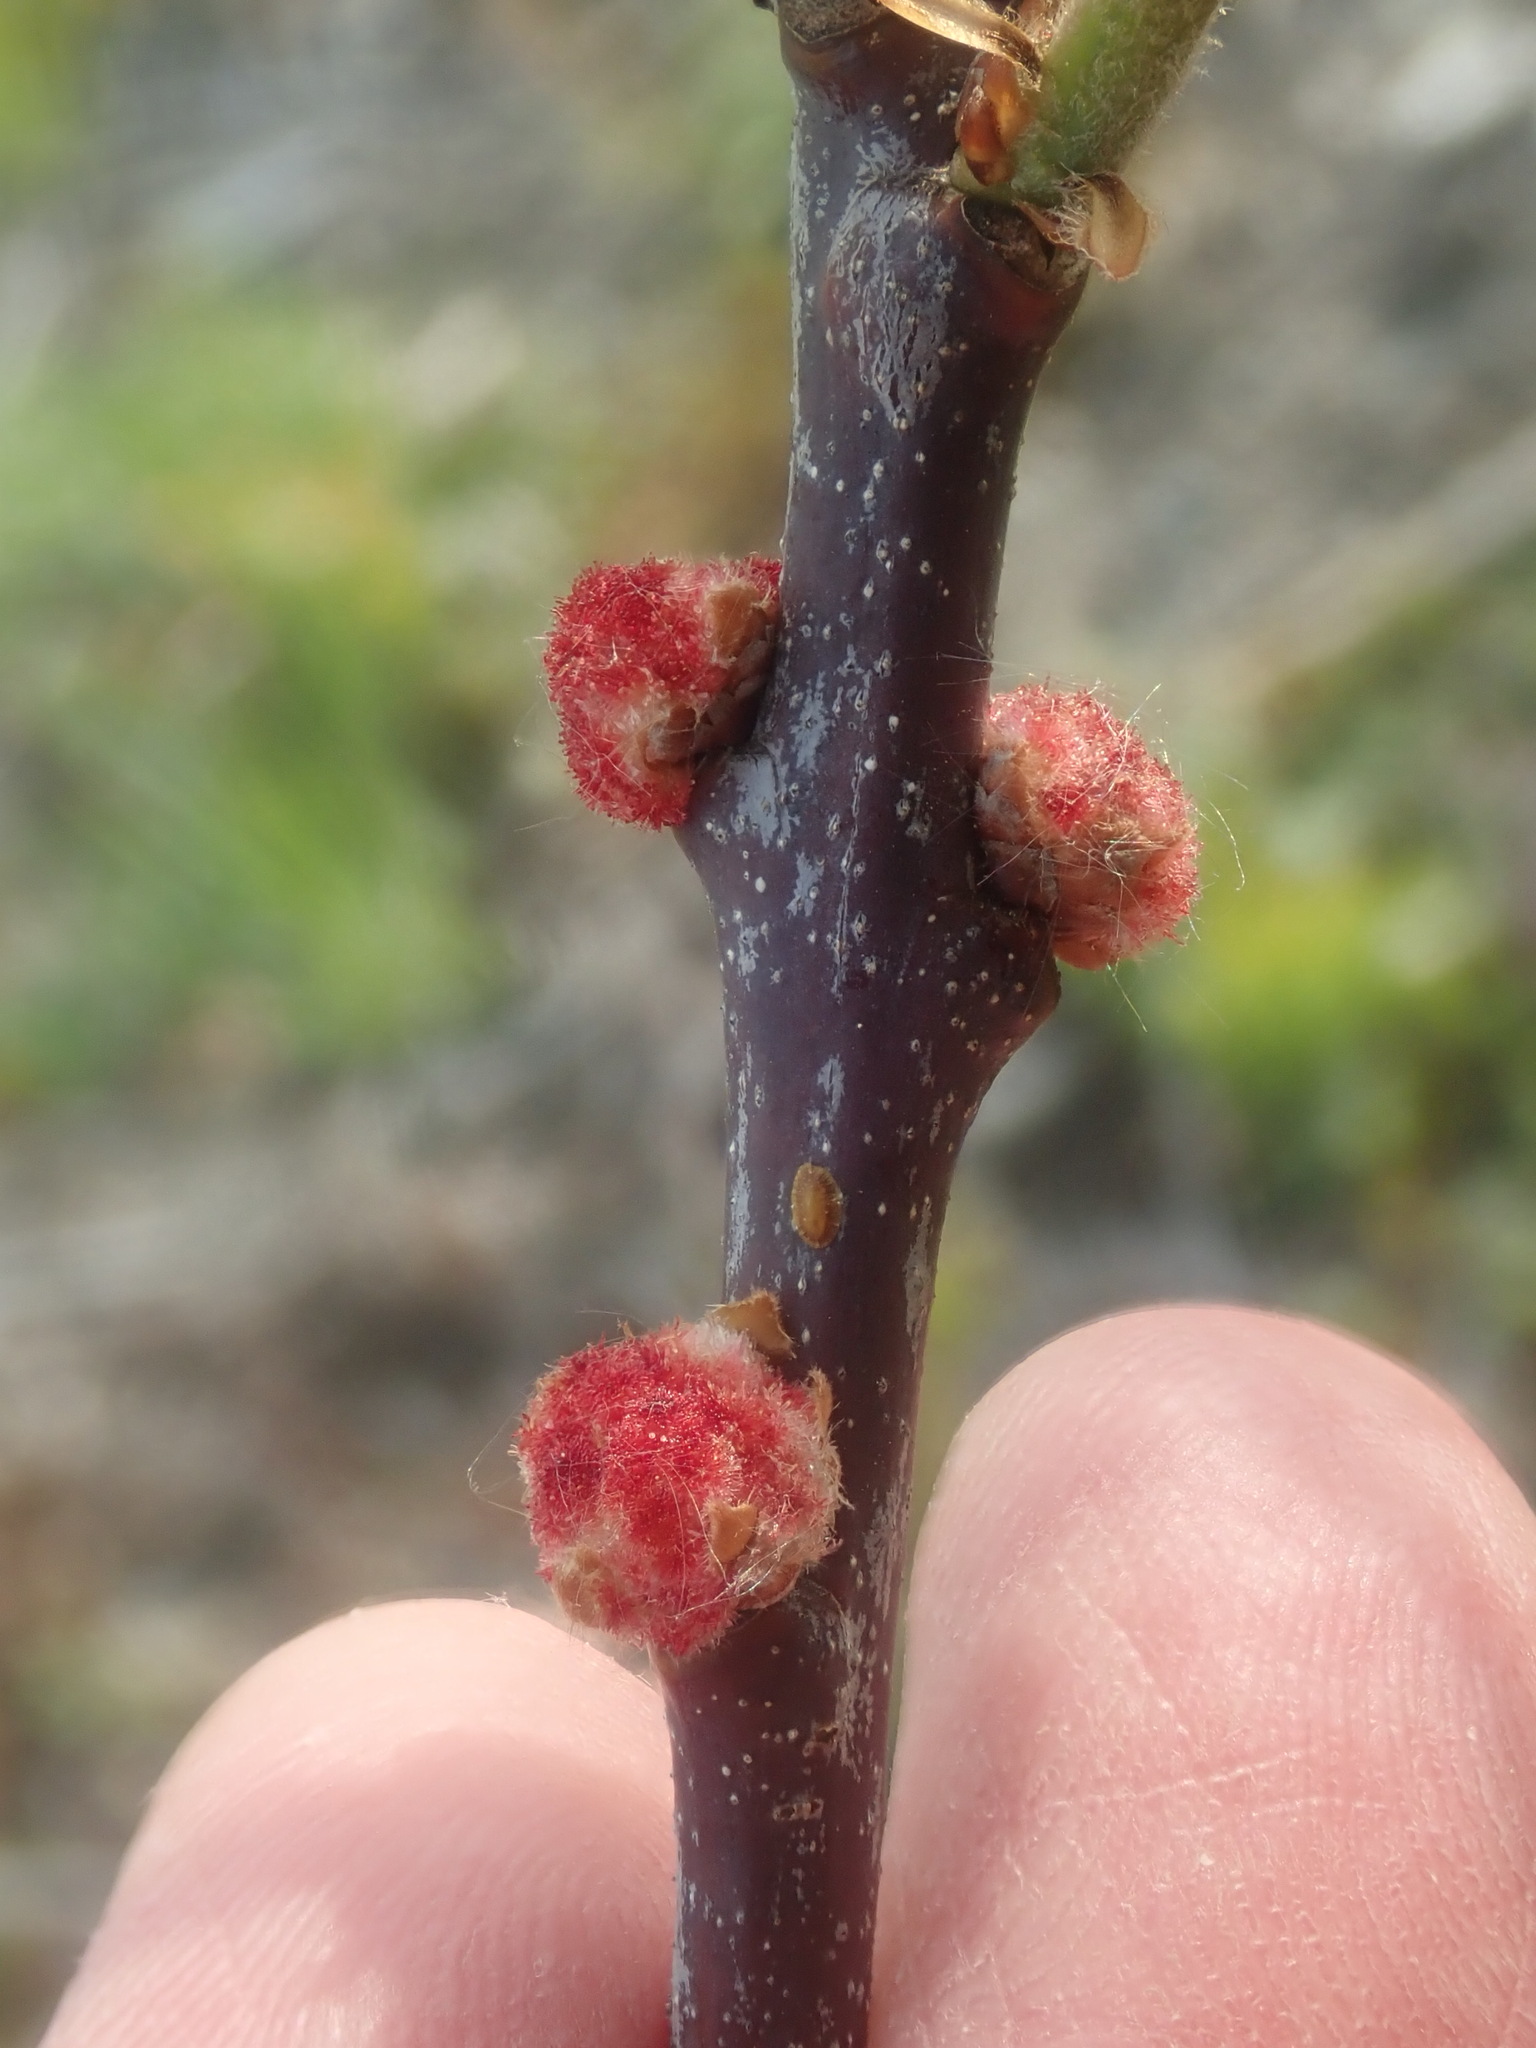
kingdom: Animalia
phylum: Arthropoda
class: Insecta
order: Hymenoptera
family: Cynipidae
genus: Callirhytis
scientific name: Callirhytis
